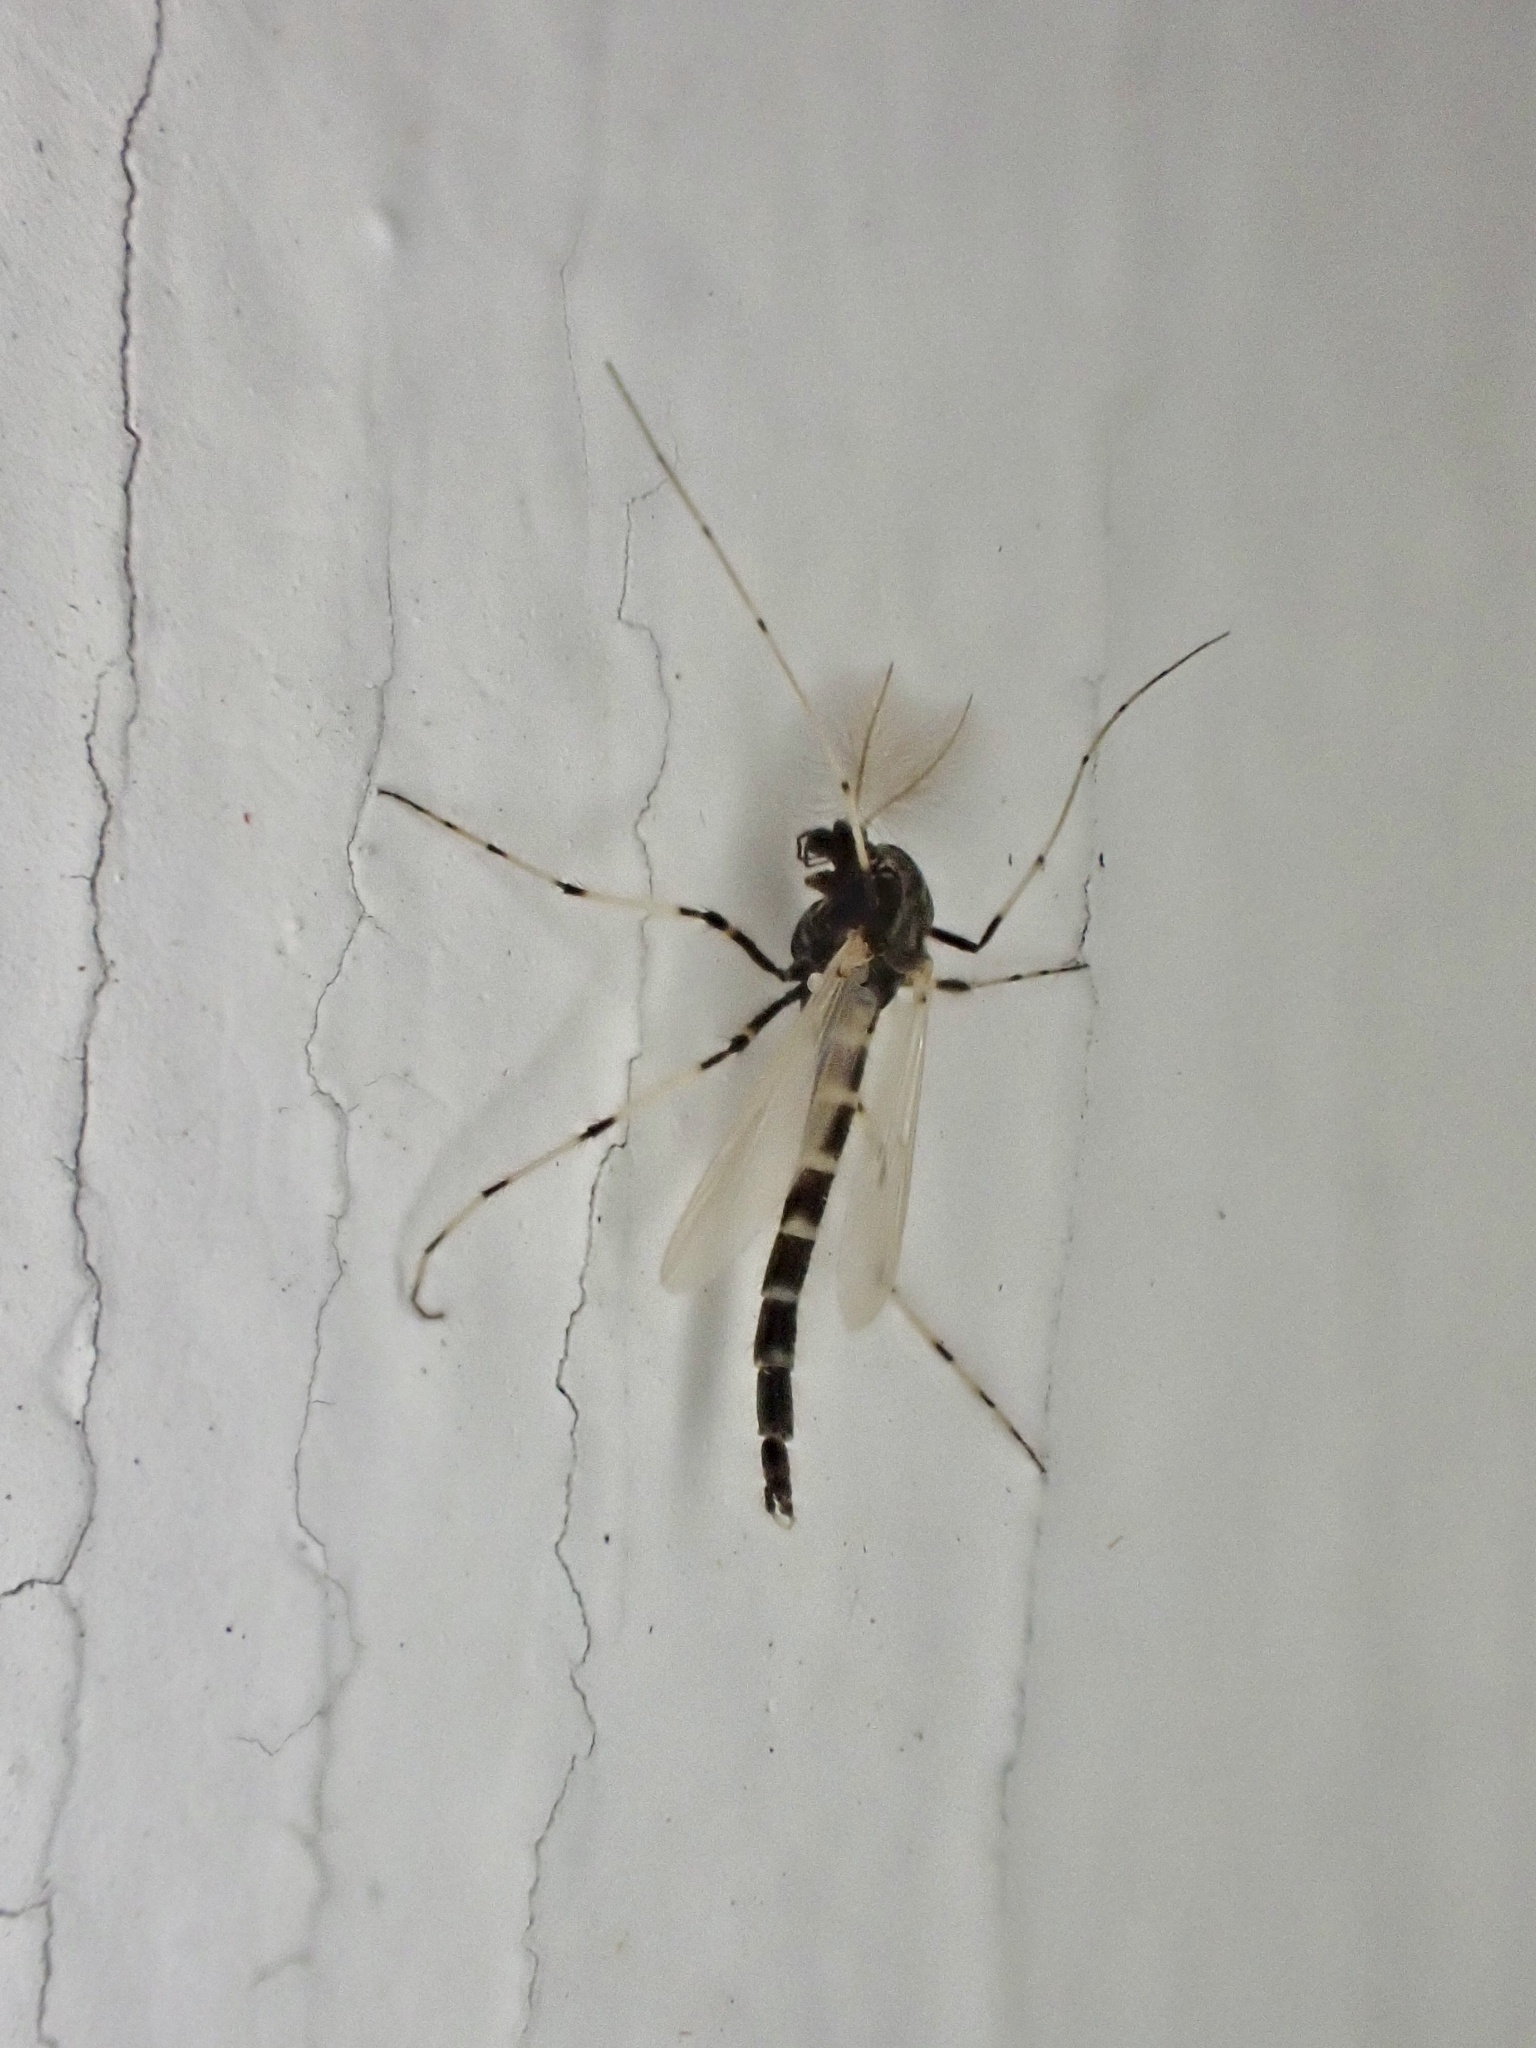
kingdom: Animalia
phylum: Arthropoda
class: Insecta
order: Diptera
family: Chironomidae
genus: Stictochironomus
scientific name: Stictochironomus devinctus
